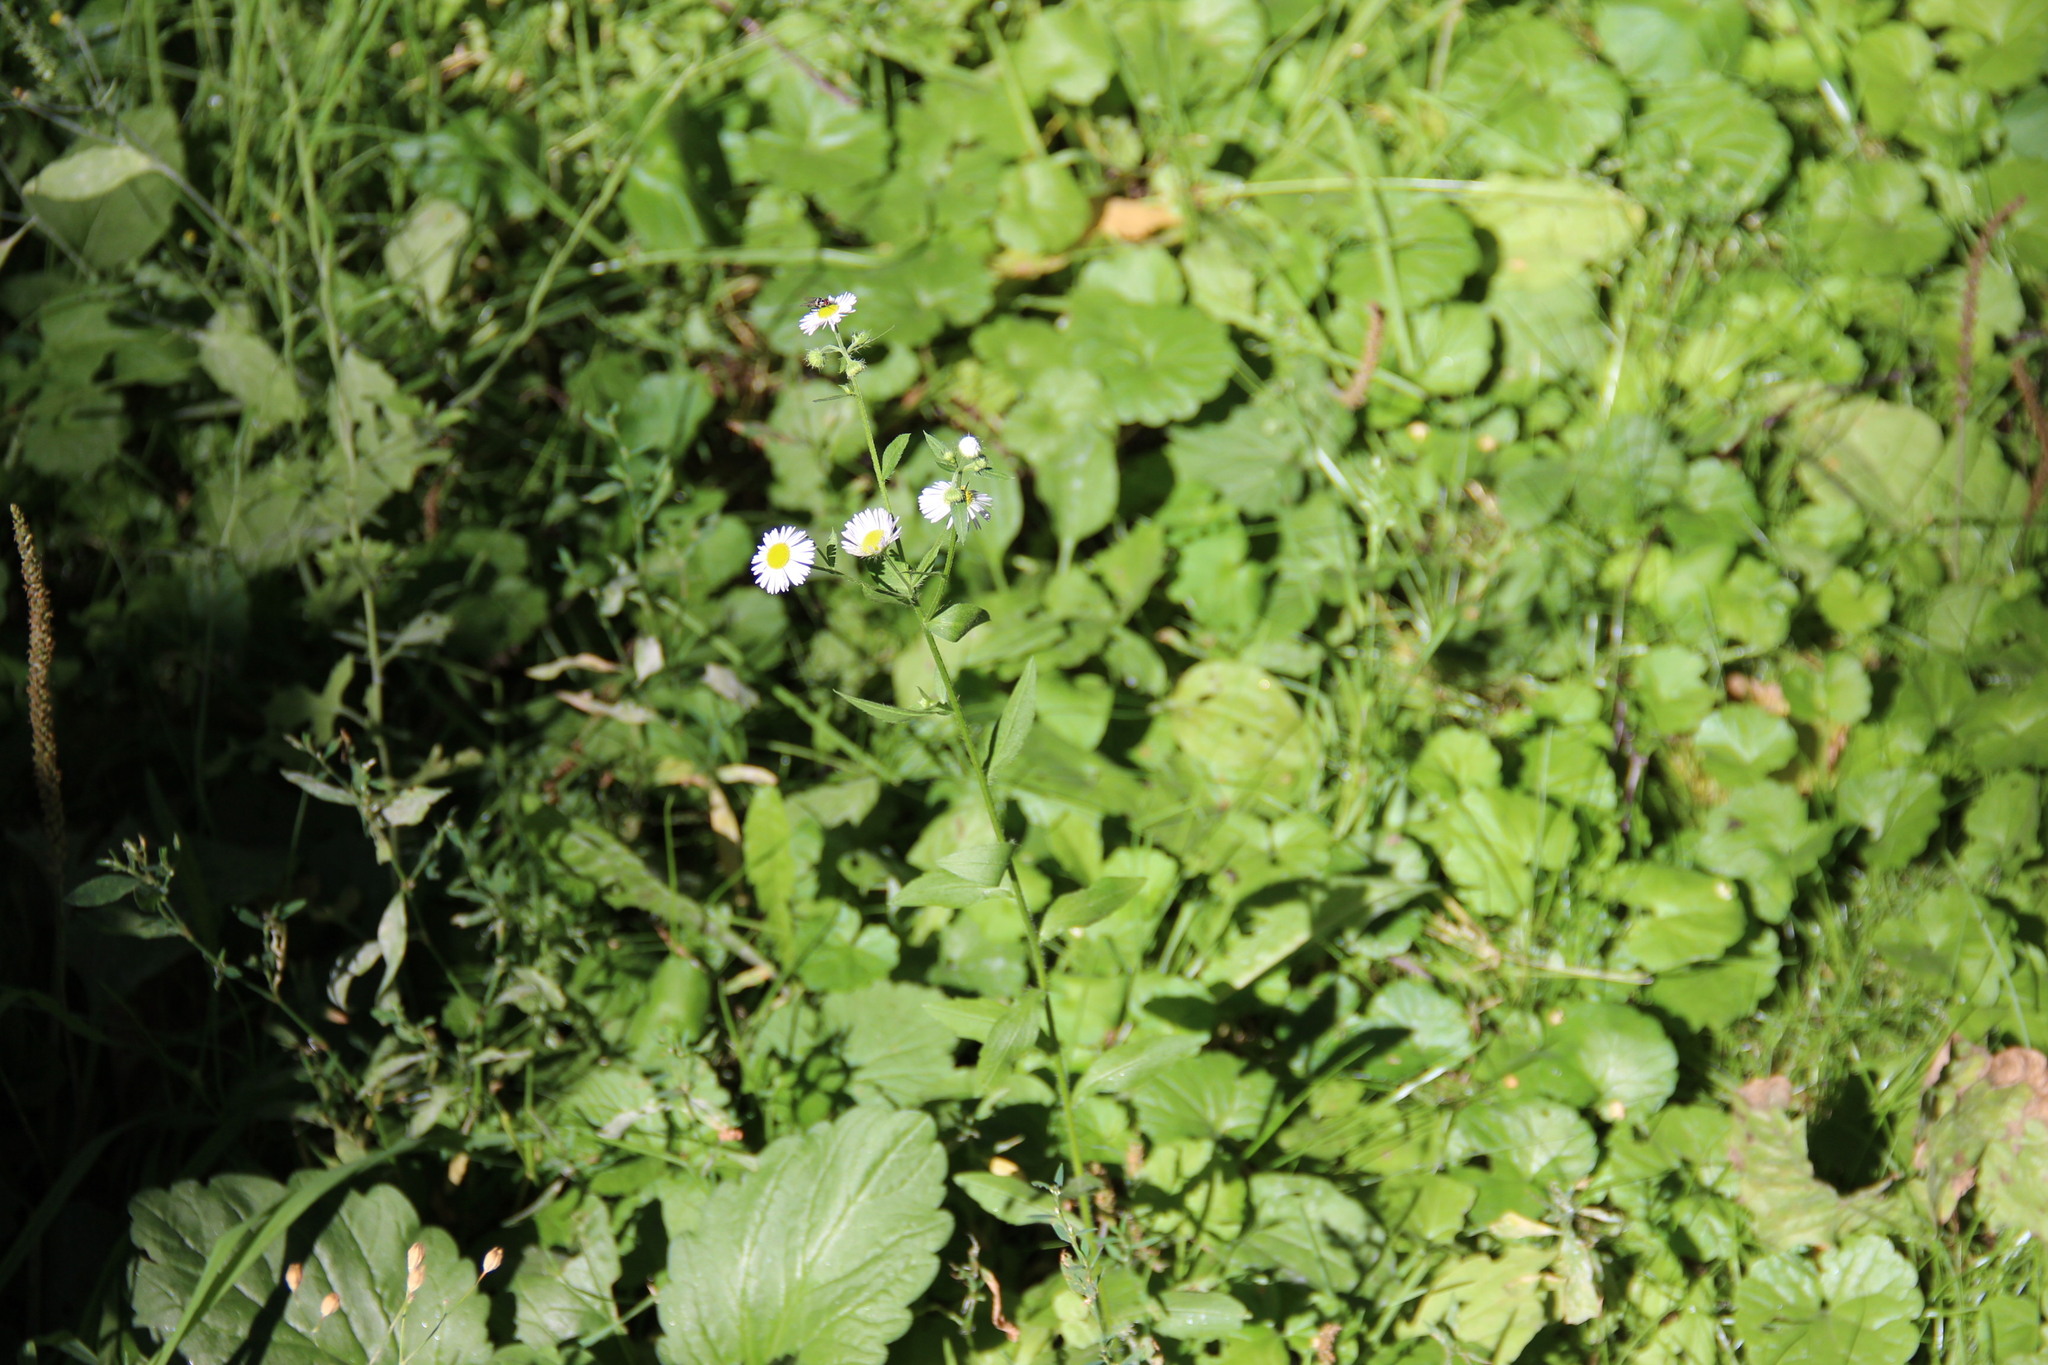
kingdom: Plantae
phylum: Tracheophyta
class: Magnoliopsida
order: Asterales
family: Asteraceae
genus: Erigeron
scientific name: Erigeron annuus
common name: Tall fleabane
